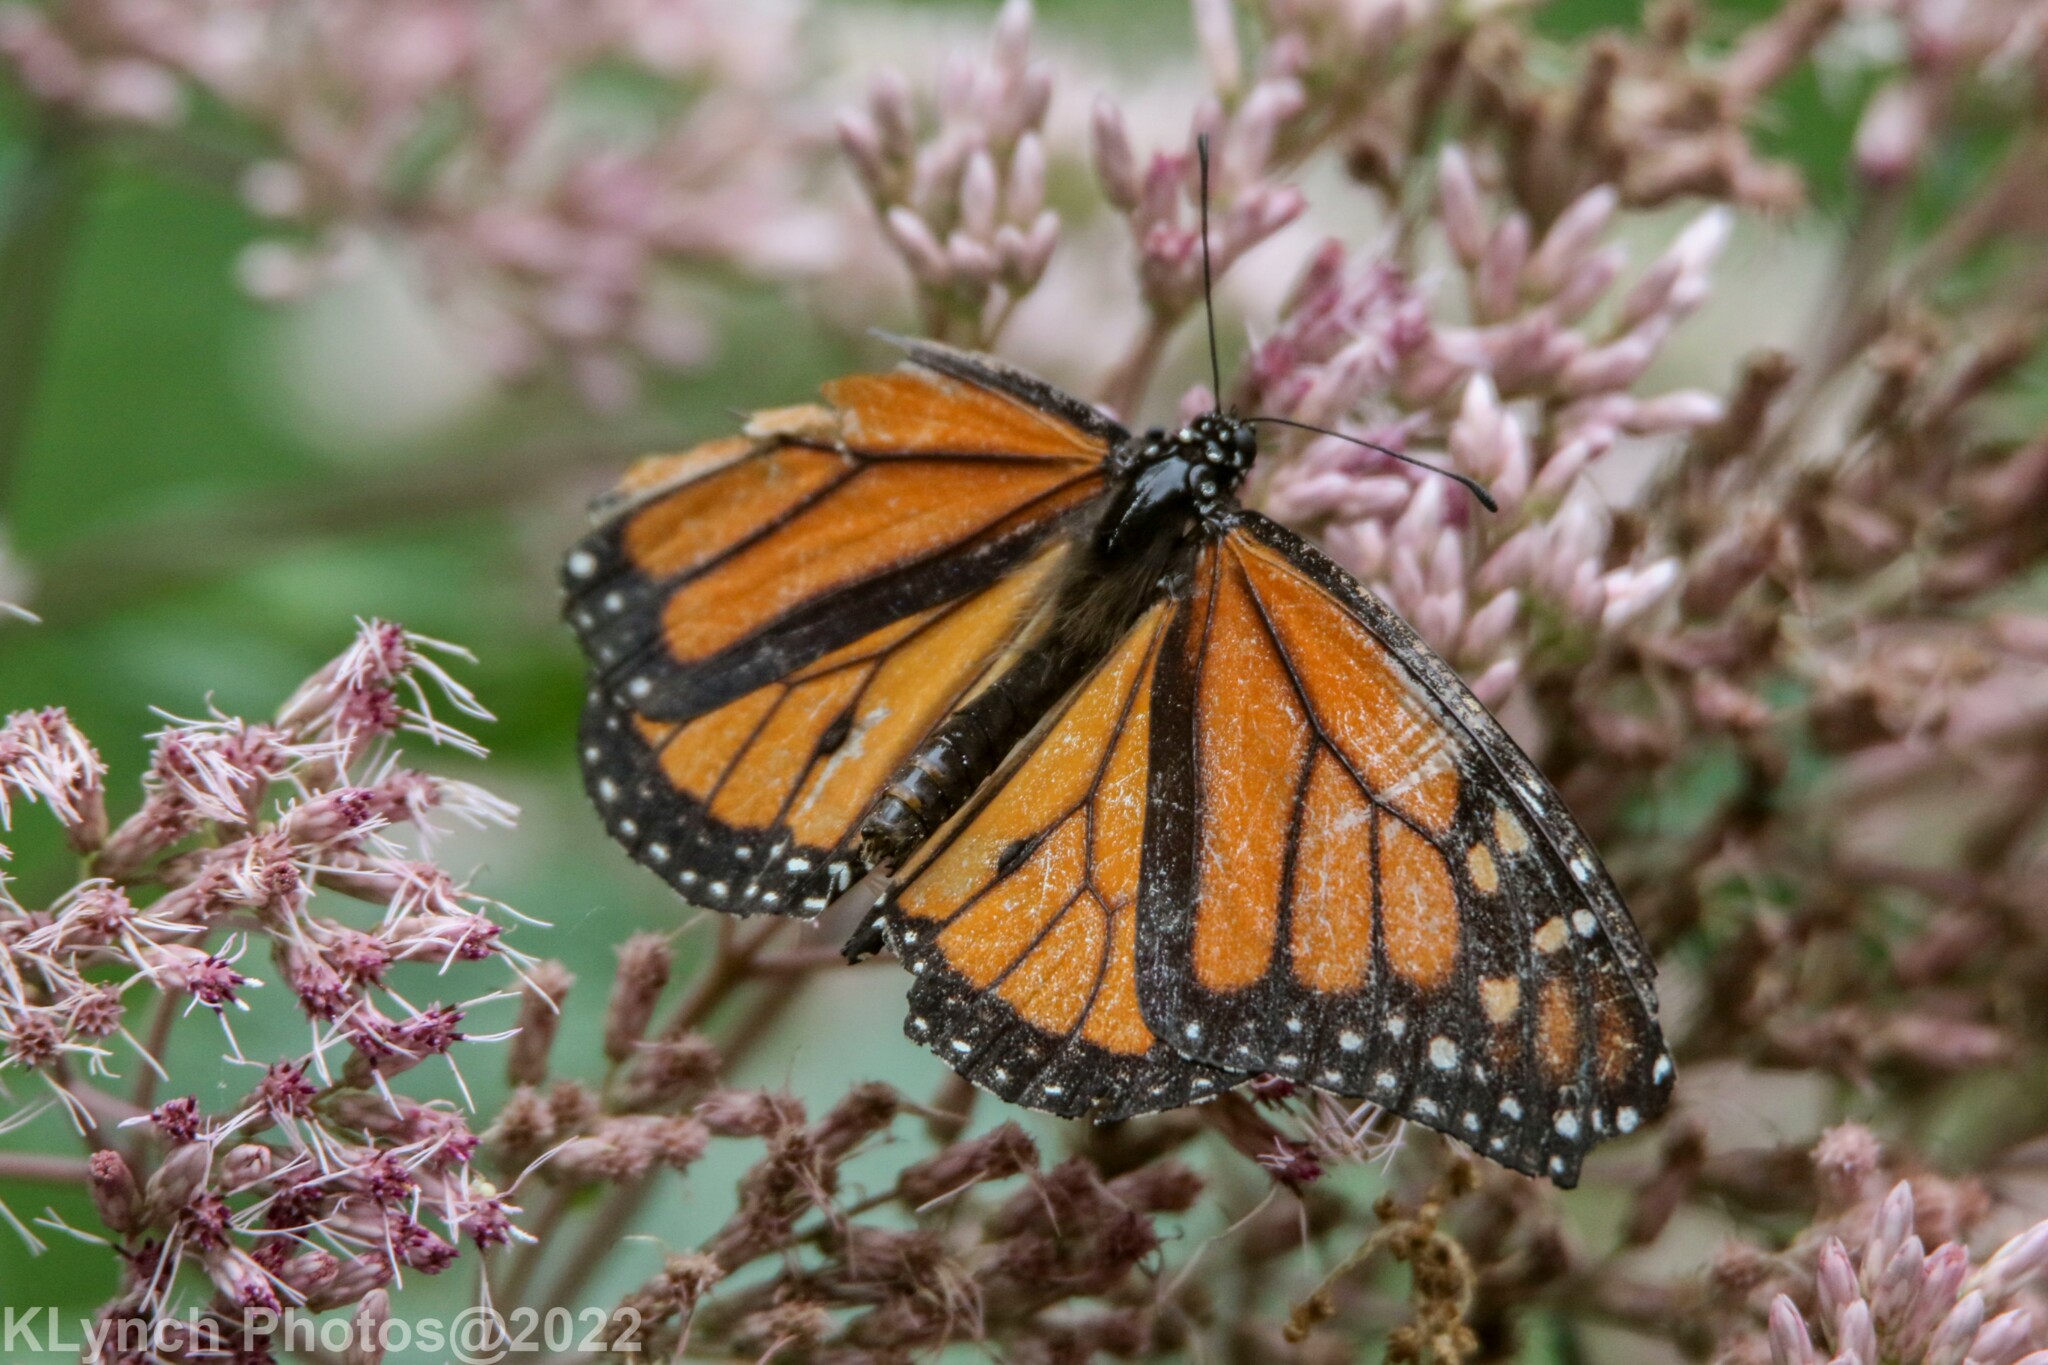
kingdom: Animalia
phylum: Arthropoda
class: Insecta
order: Lepidoptera
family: Nymphalidae
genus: Danaus
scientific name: Danaus plexippus
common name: Monarch
